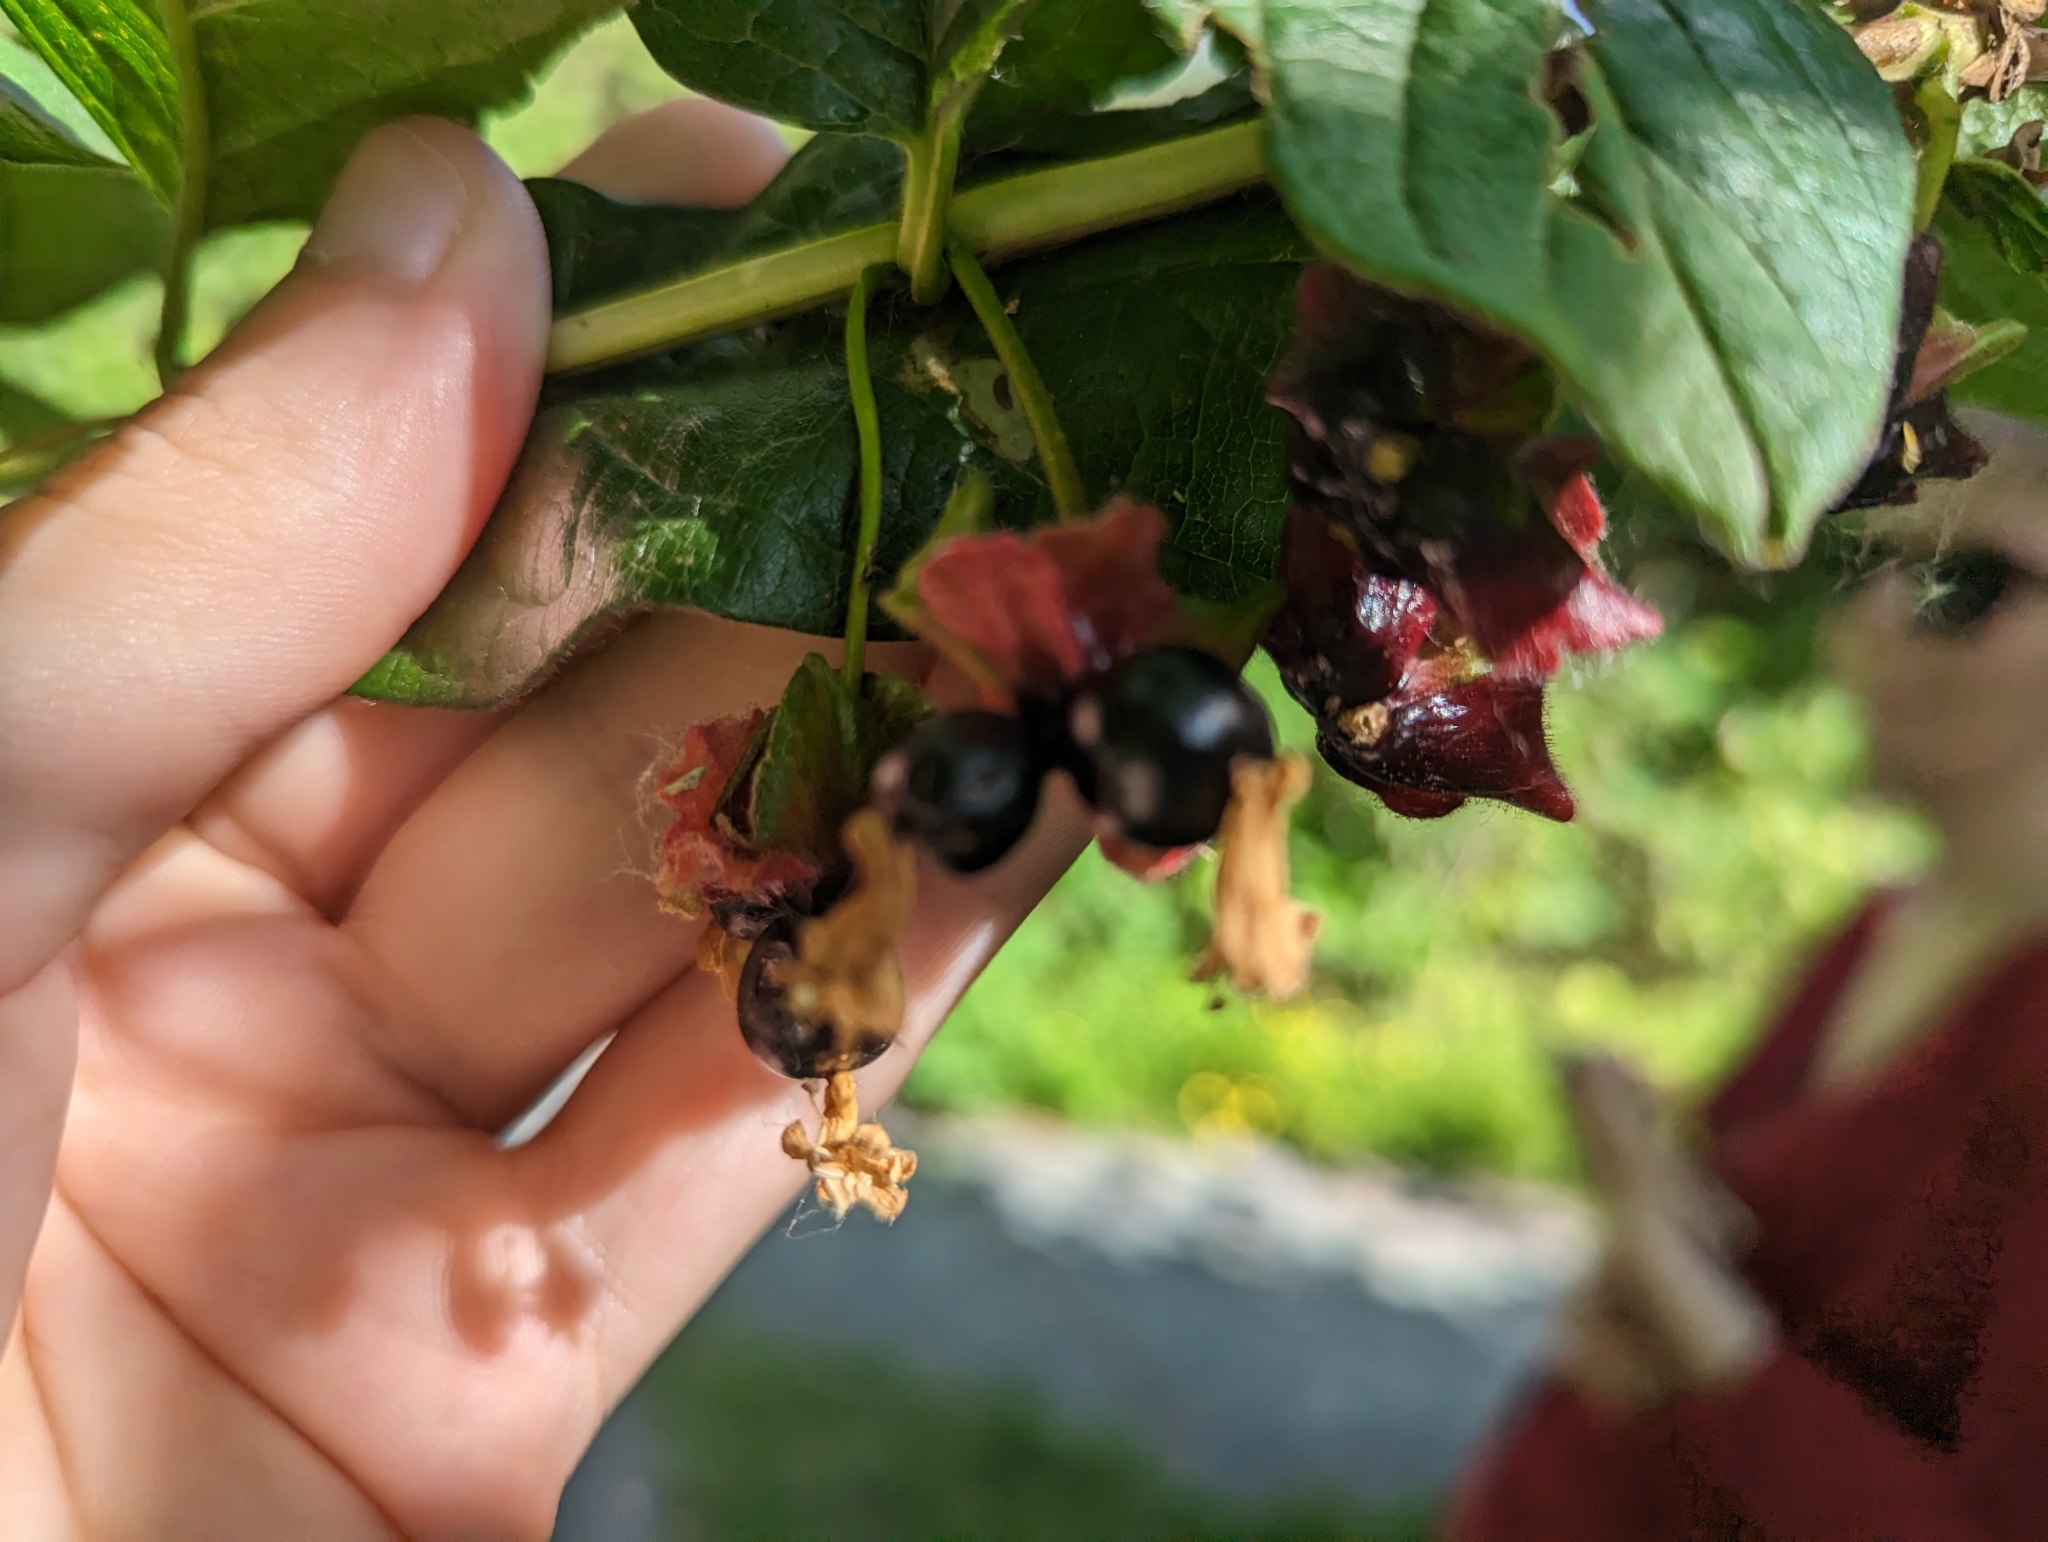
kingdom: Plantae
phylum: Tracheophyta
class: Magnoliopsida
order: Dipsacales
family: Caprifoliaceae
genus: Lonicera
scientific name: Lonicera involucrata
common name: Californian honeysuckle
